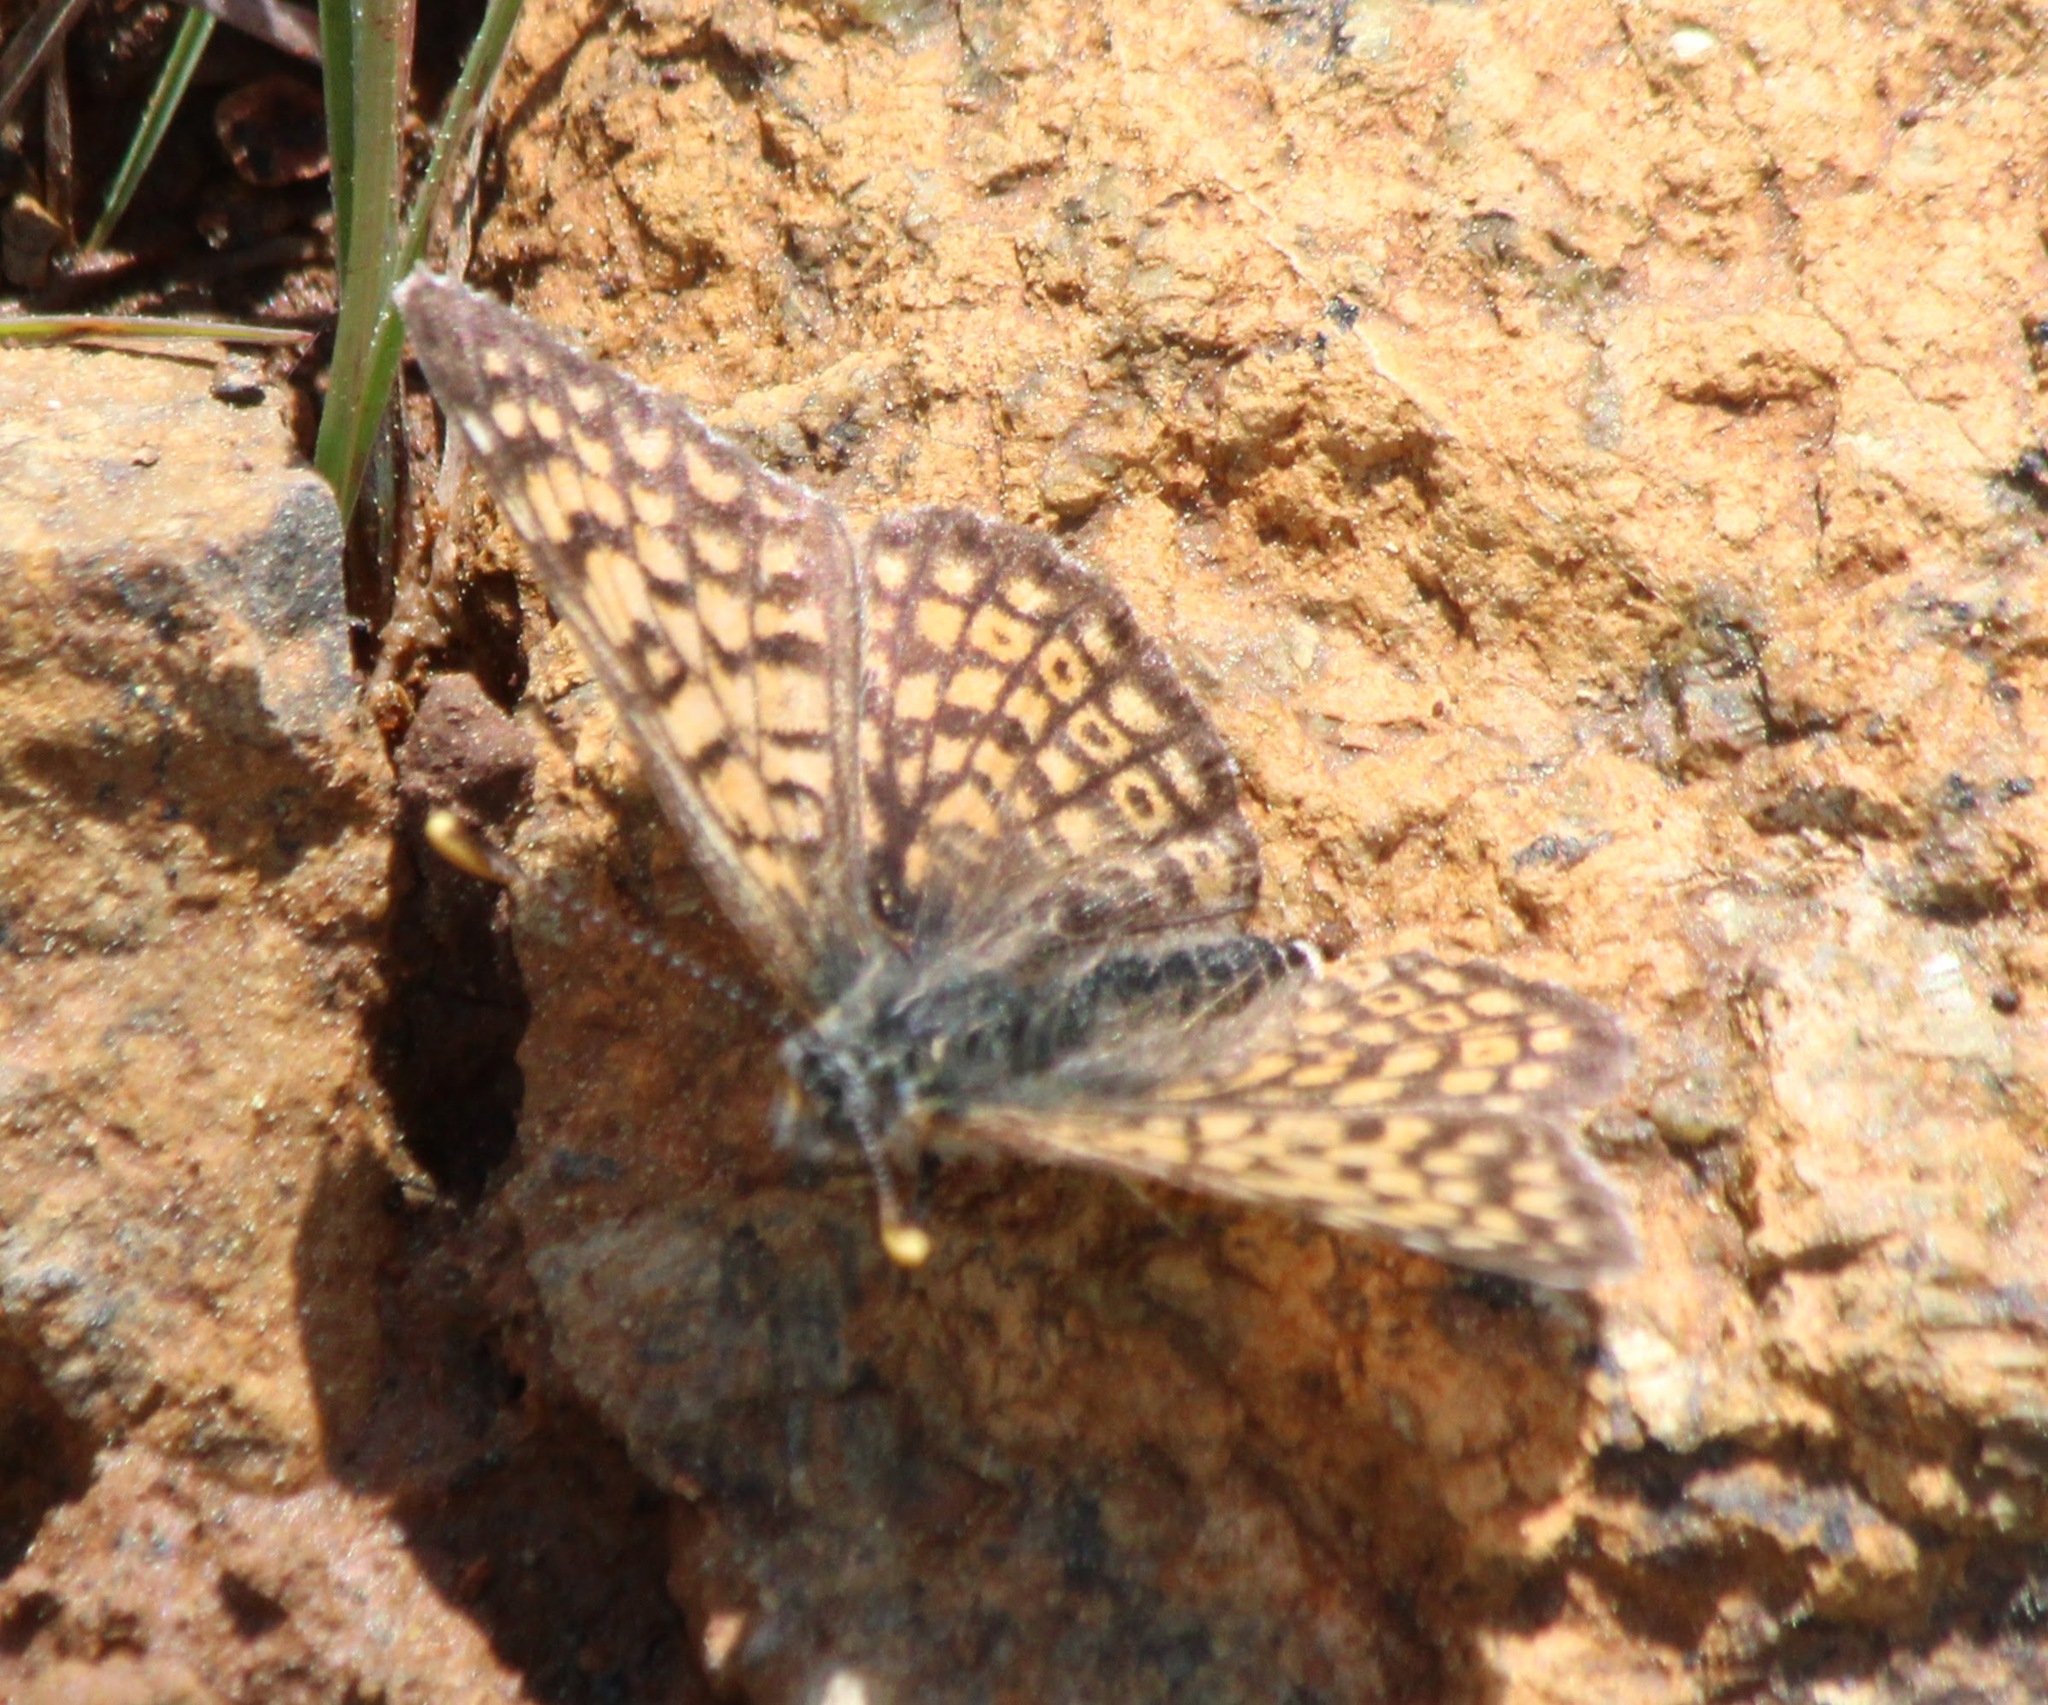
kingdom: Animalia
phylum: Arthropoda
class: Insecta
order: Lepidoptera
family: Nymphalidae
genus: Melitaea
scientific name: Melitaea cinxia
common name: Glanville fritillary
